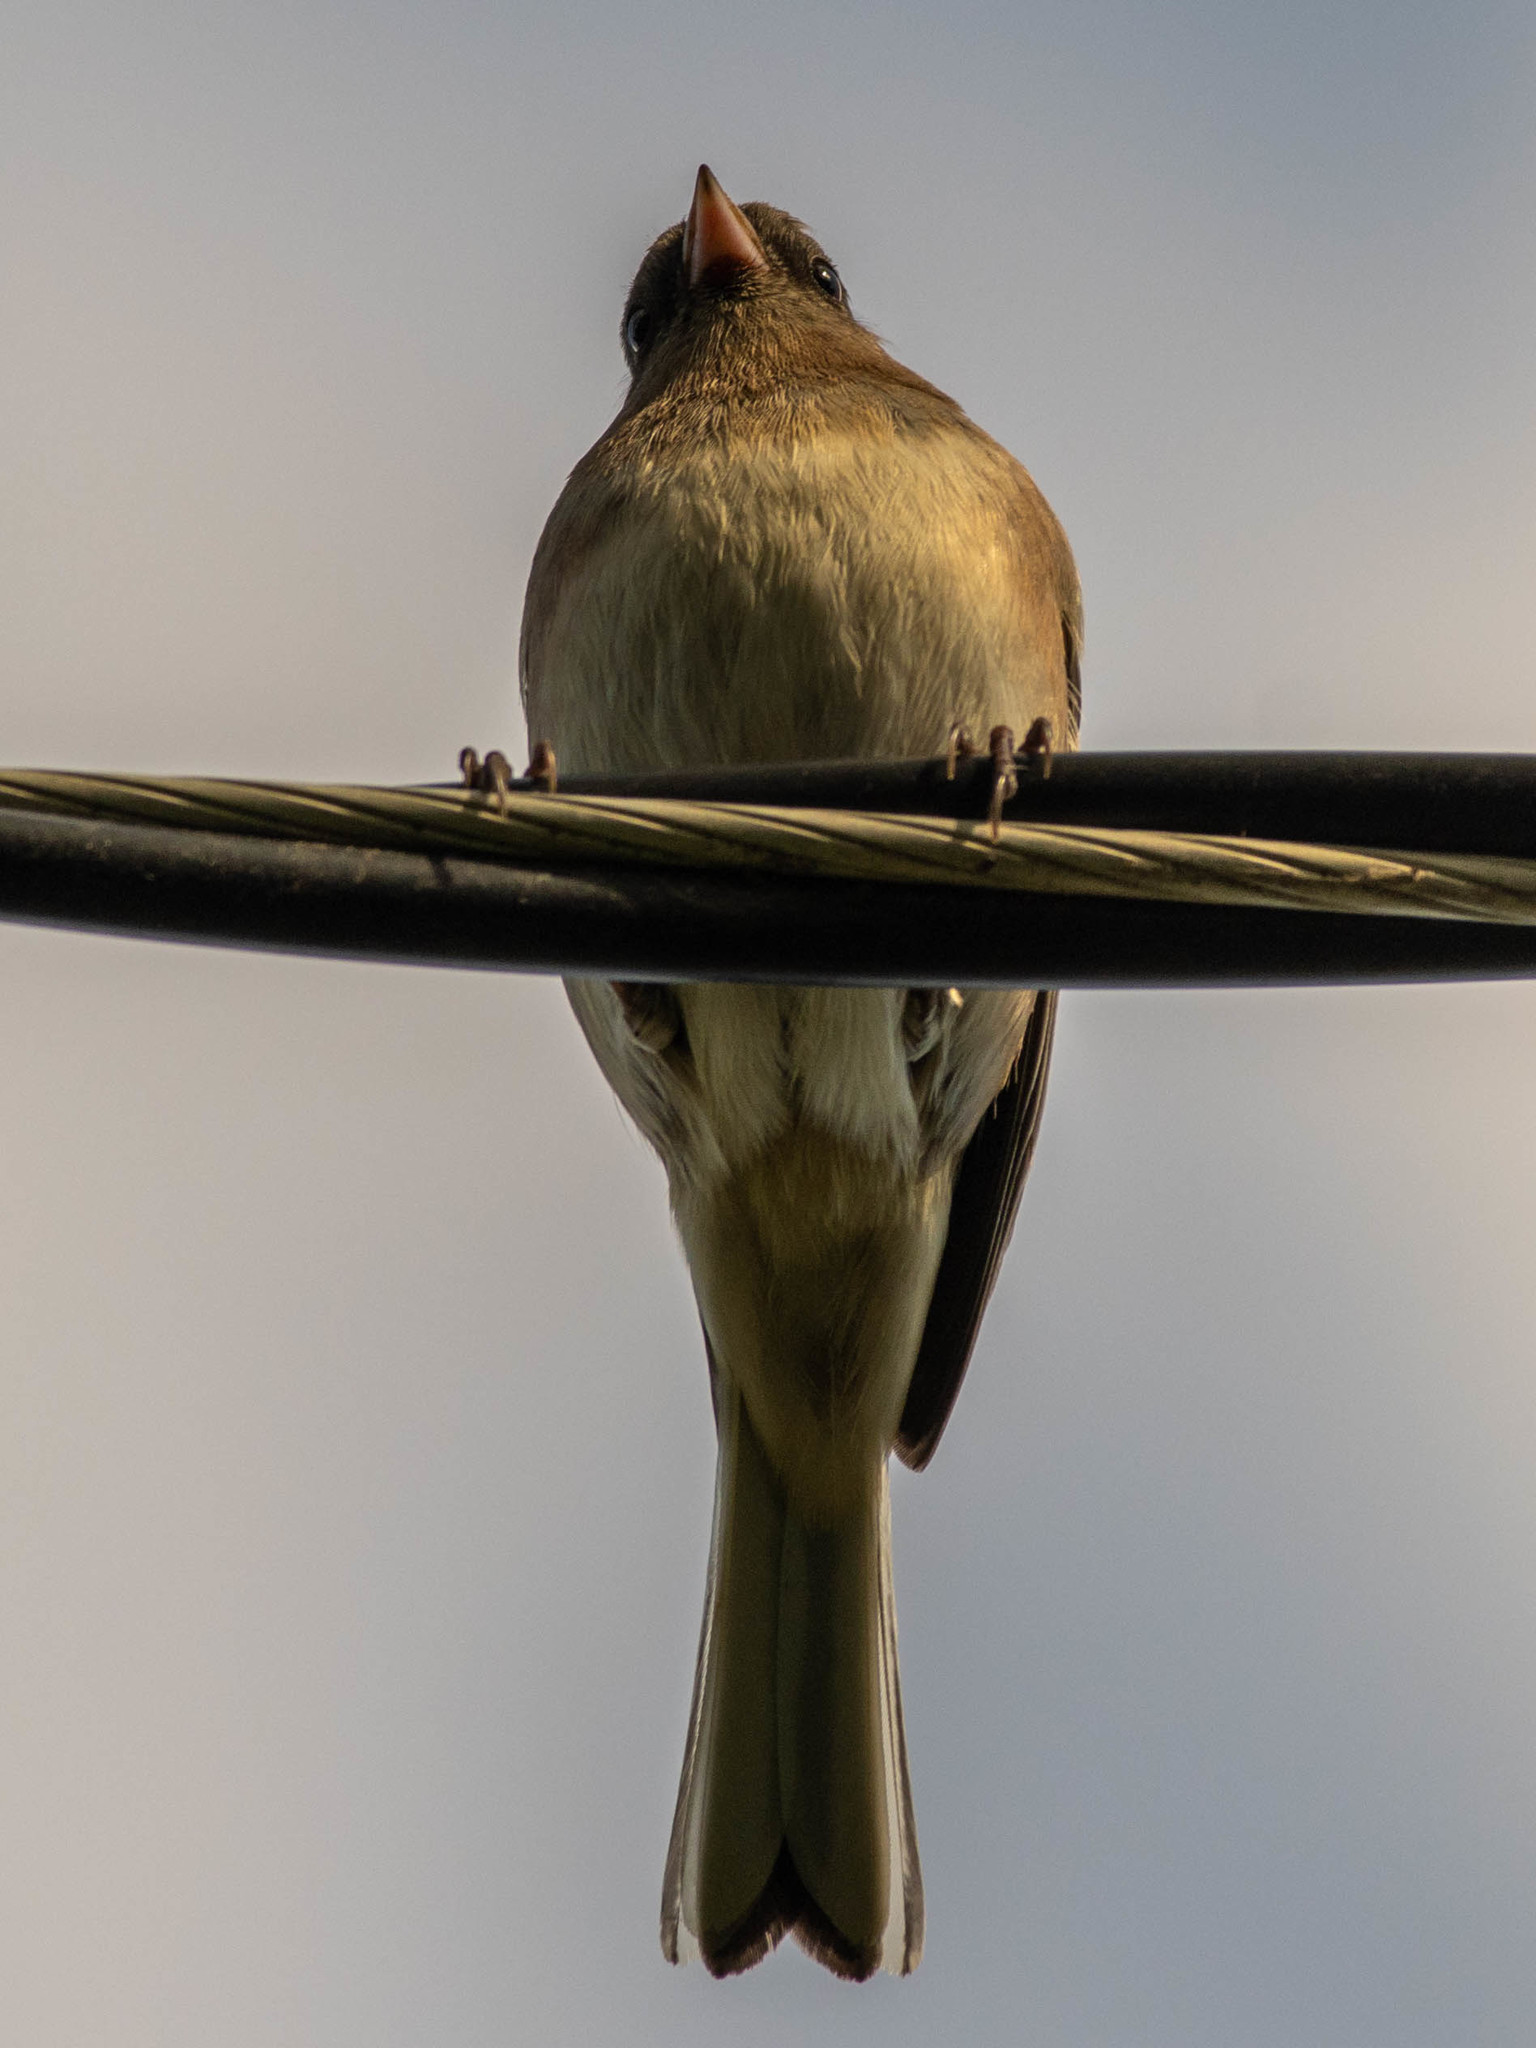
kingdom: Animalia
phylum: Chordata
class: Aves
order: Passeriformes
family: Passerellidae
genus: Junco
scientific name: Junco hyemalis
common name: Dark-eyed junco
